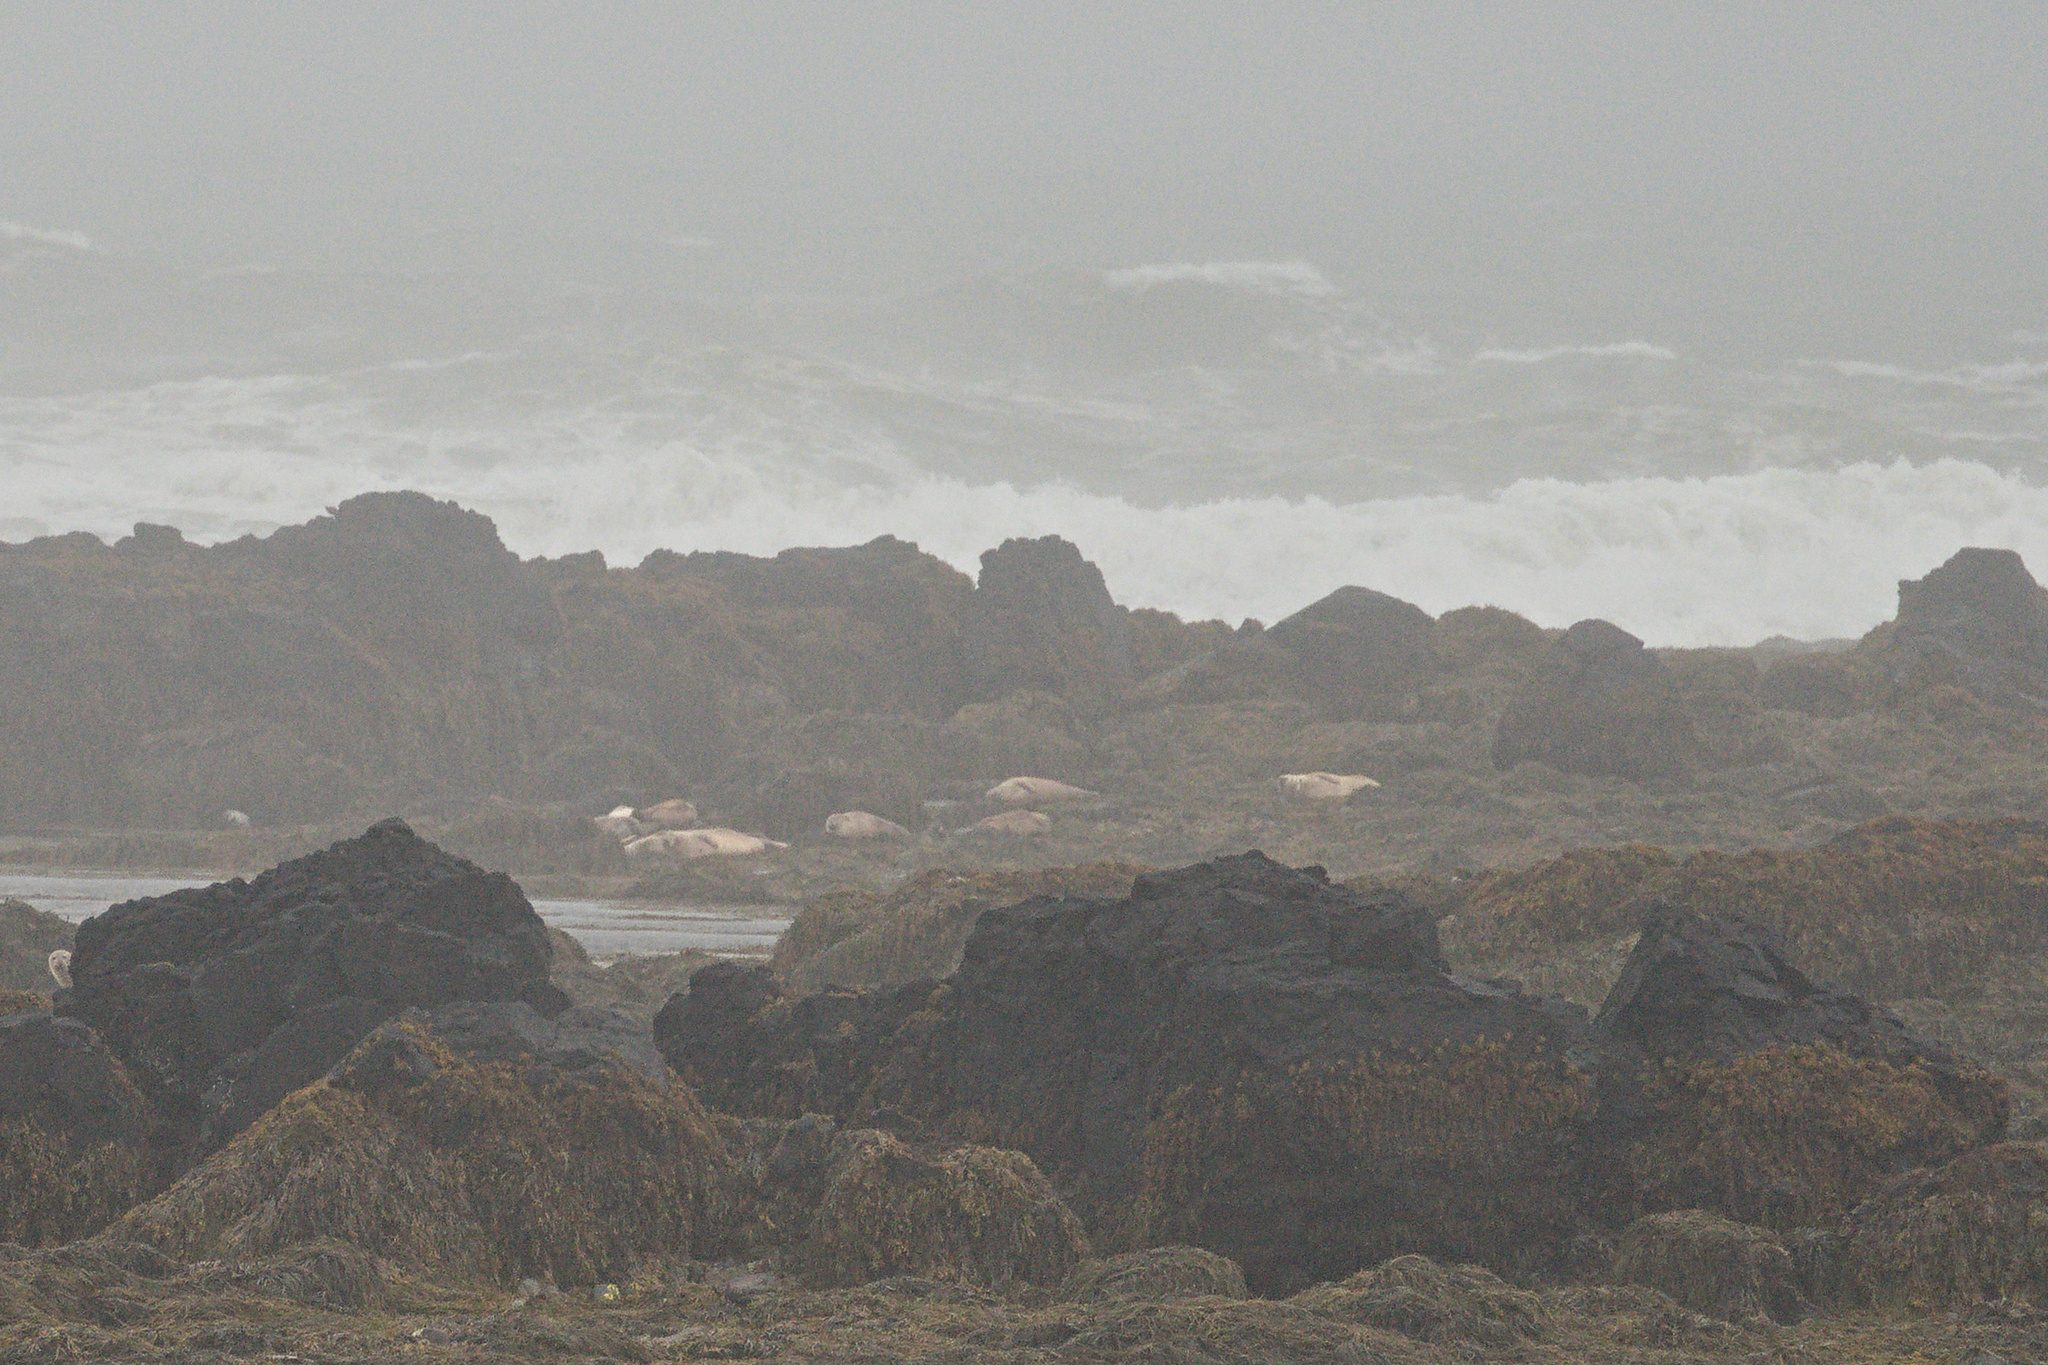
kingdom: Animalia
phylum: Chordata
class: Mammalia
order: Carnivora
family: Phocidae
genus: Phoca
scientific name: Phoca vitulina
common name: Harbor seal
